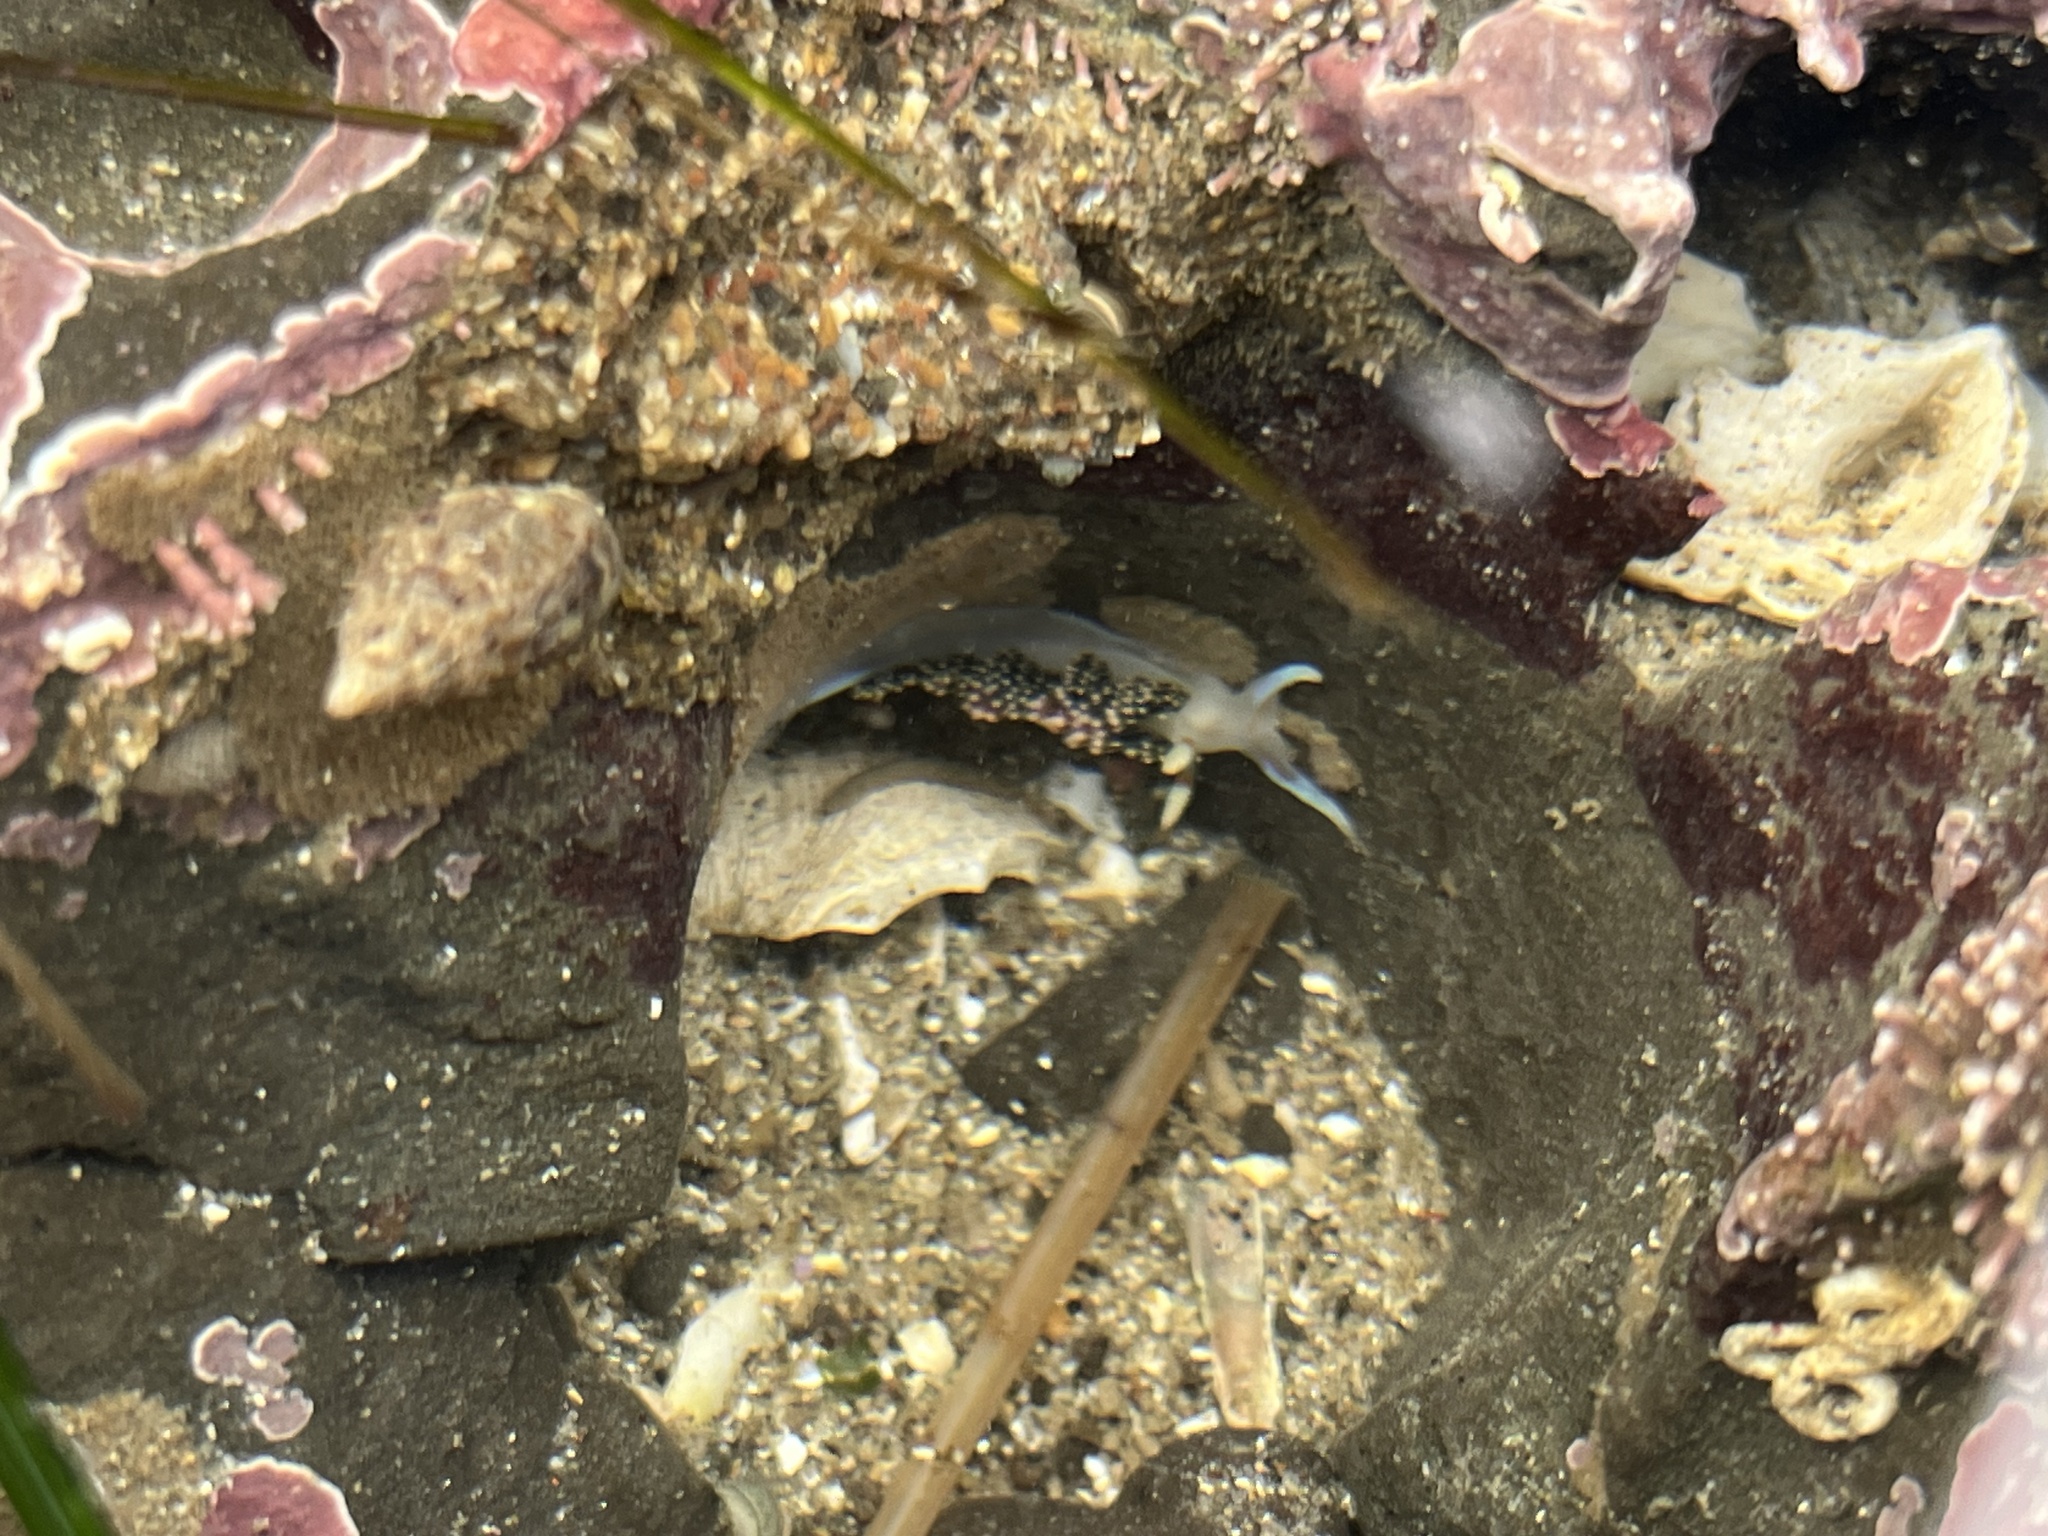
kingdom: Animalia
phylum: Mollusca
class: Gastropoda
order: Nudibranchia
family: Facelinidae
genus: Phidiana
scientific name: Phidiana hiltoni
